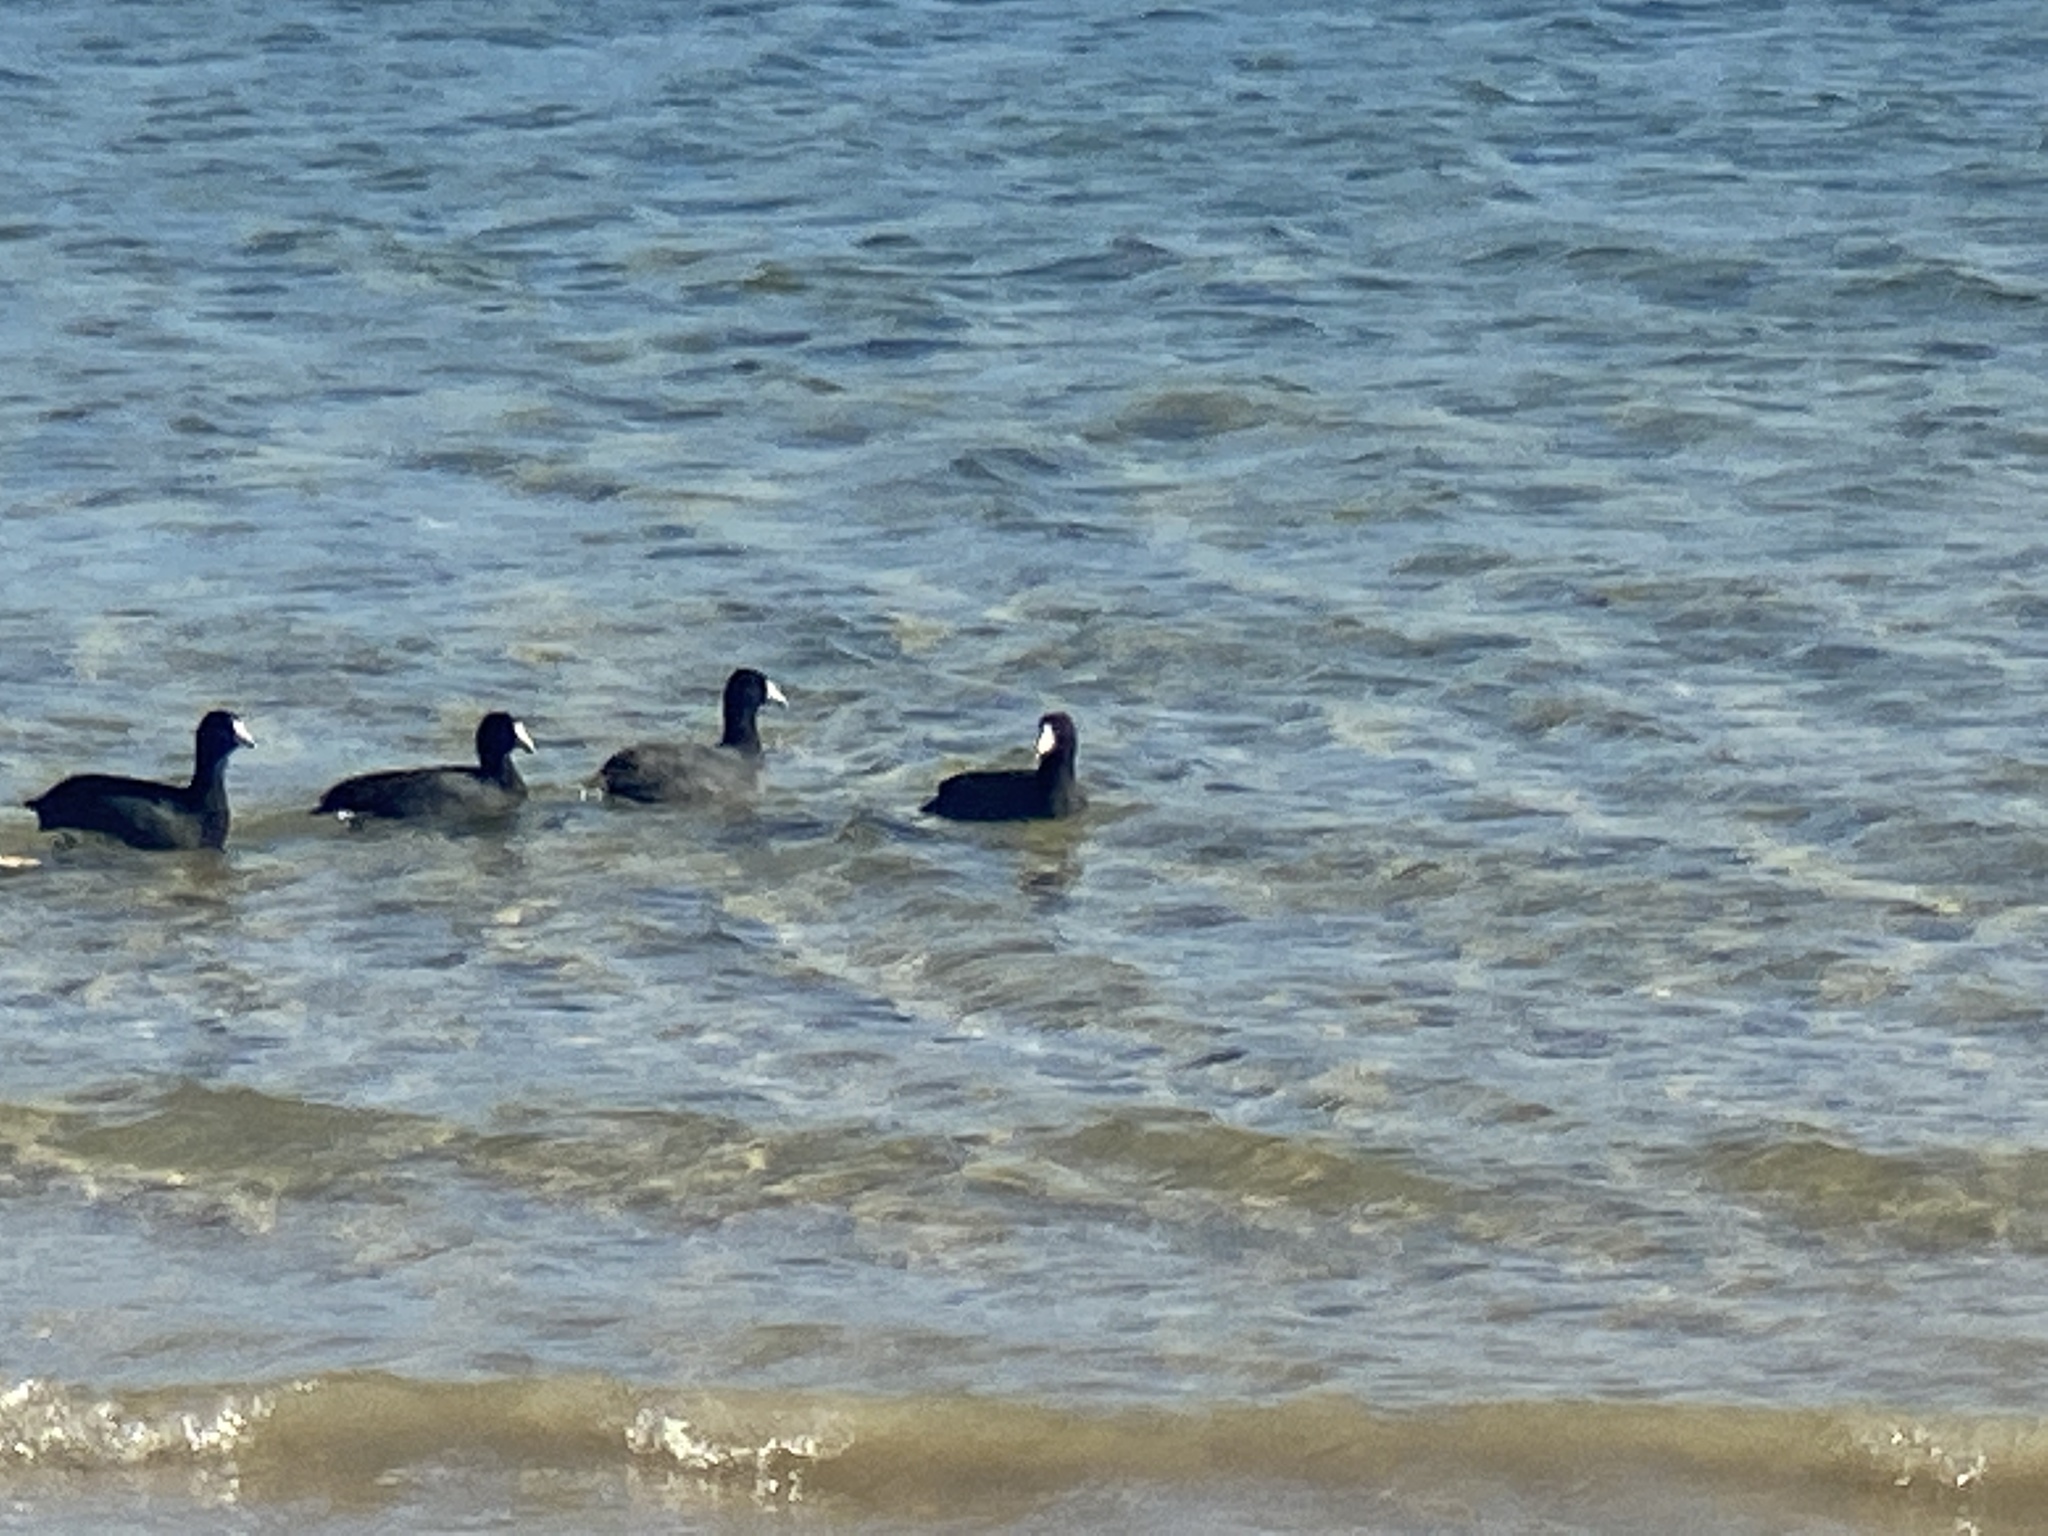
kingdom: Animalia
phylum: Chordata
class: Aves
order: Gruiformes
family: Rallidae
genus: Fulica
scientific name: Fulica americana
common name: American coot
